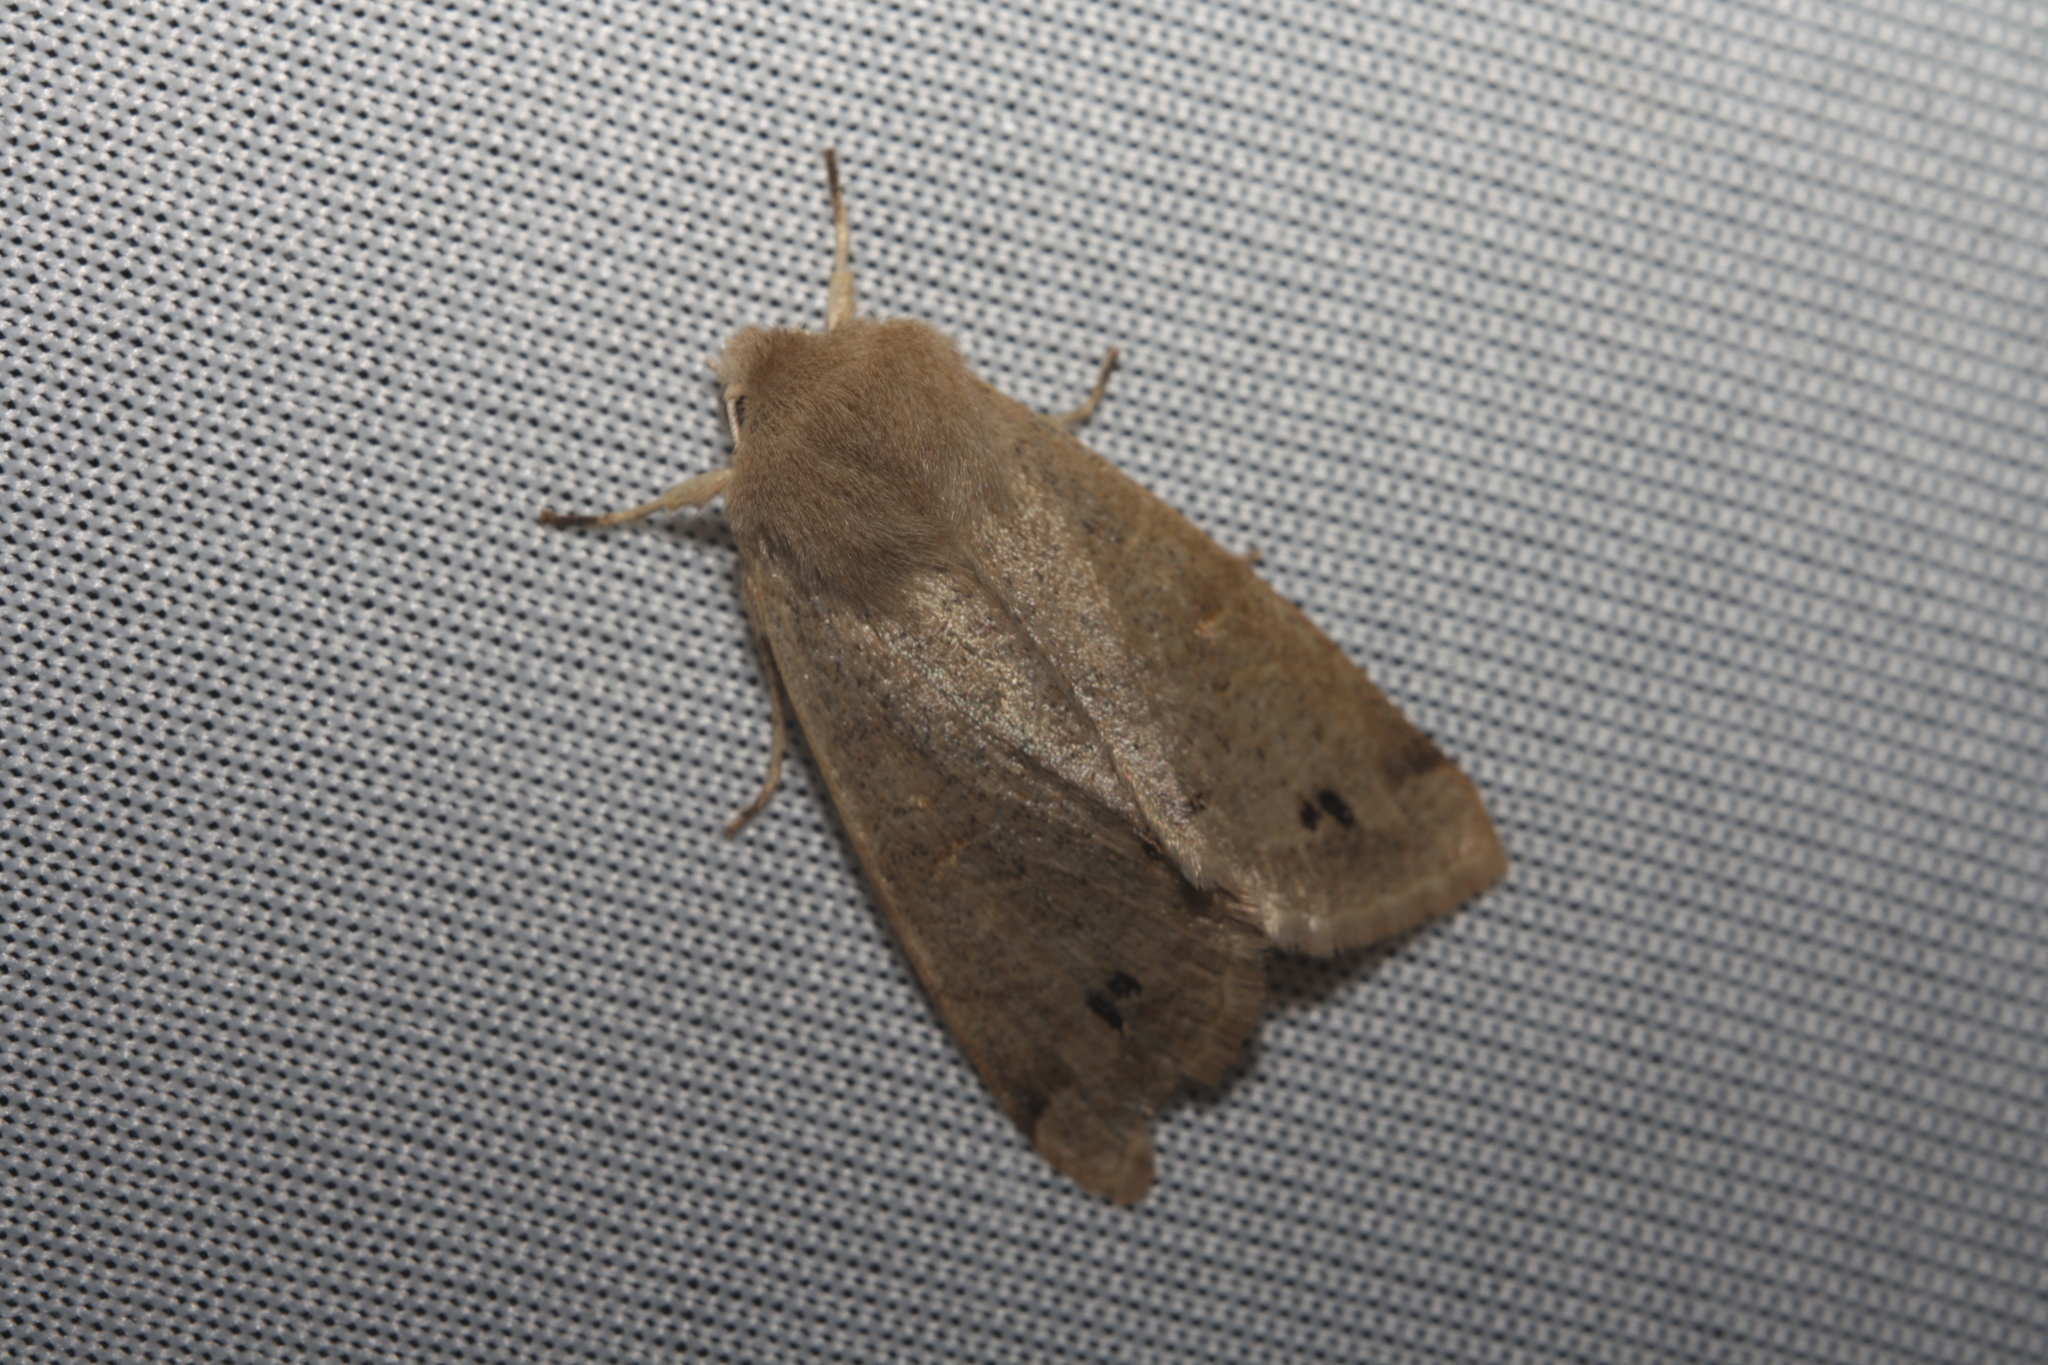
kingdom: Animalia
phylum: Arthropoda
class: Insecta
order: Lepidoptera
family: Noctuidae
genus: Anorthoa
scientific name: Anorthoa munda
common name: Twin-spotted quaker
